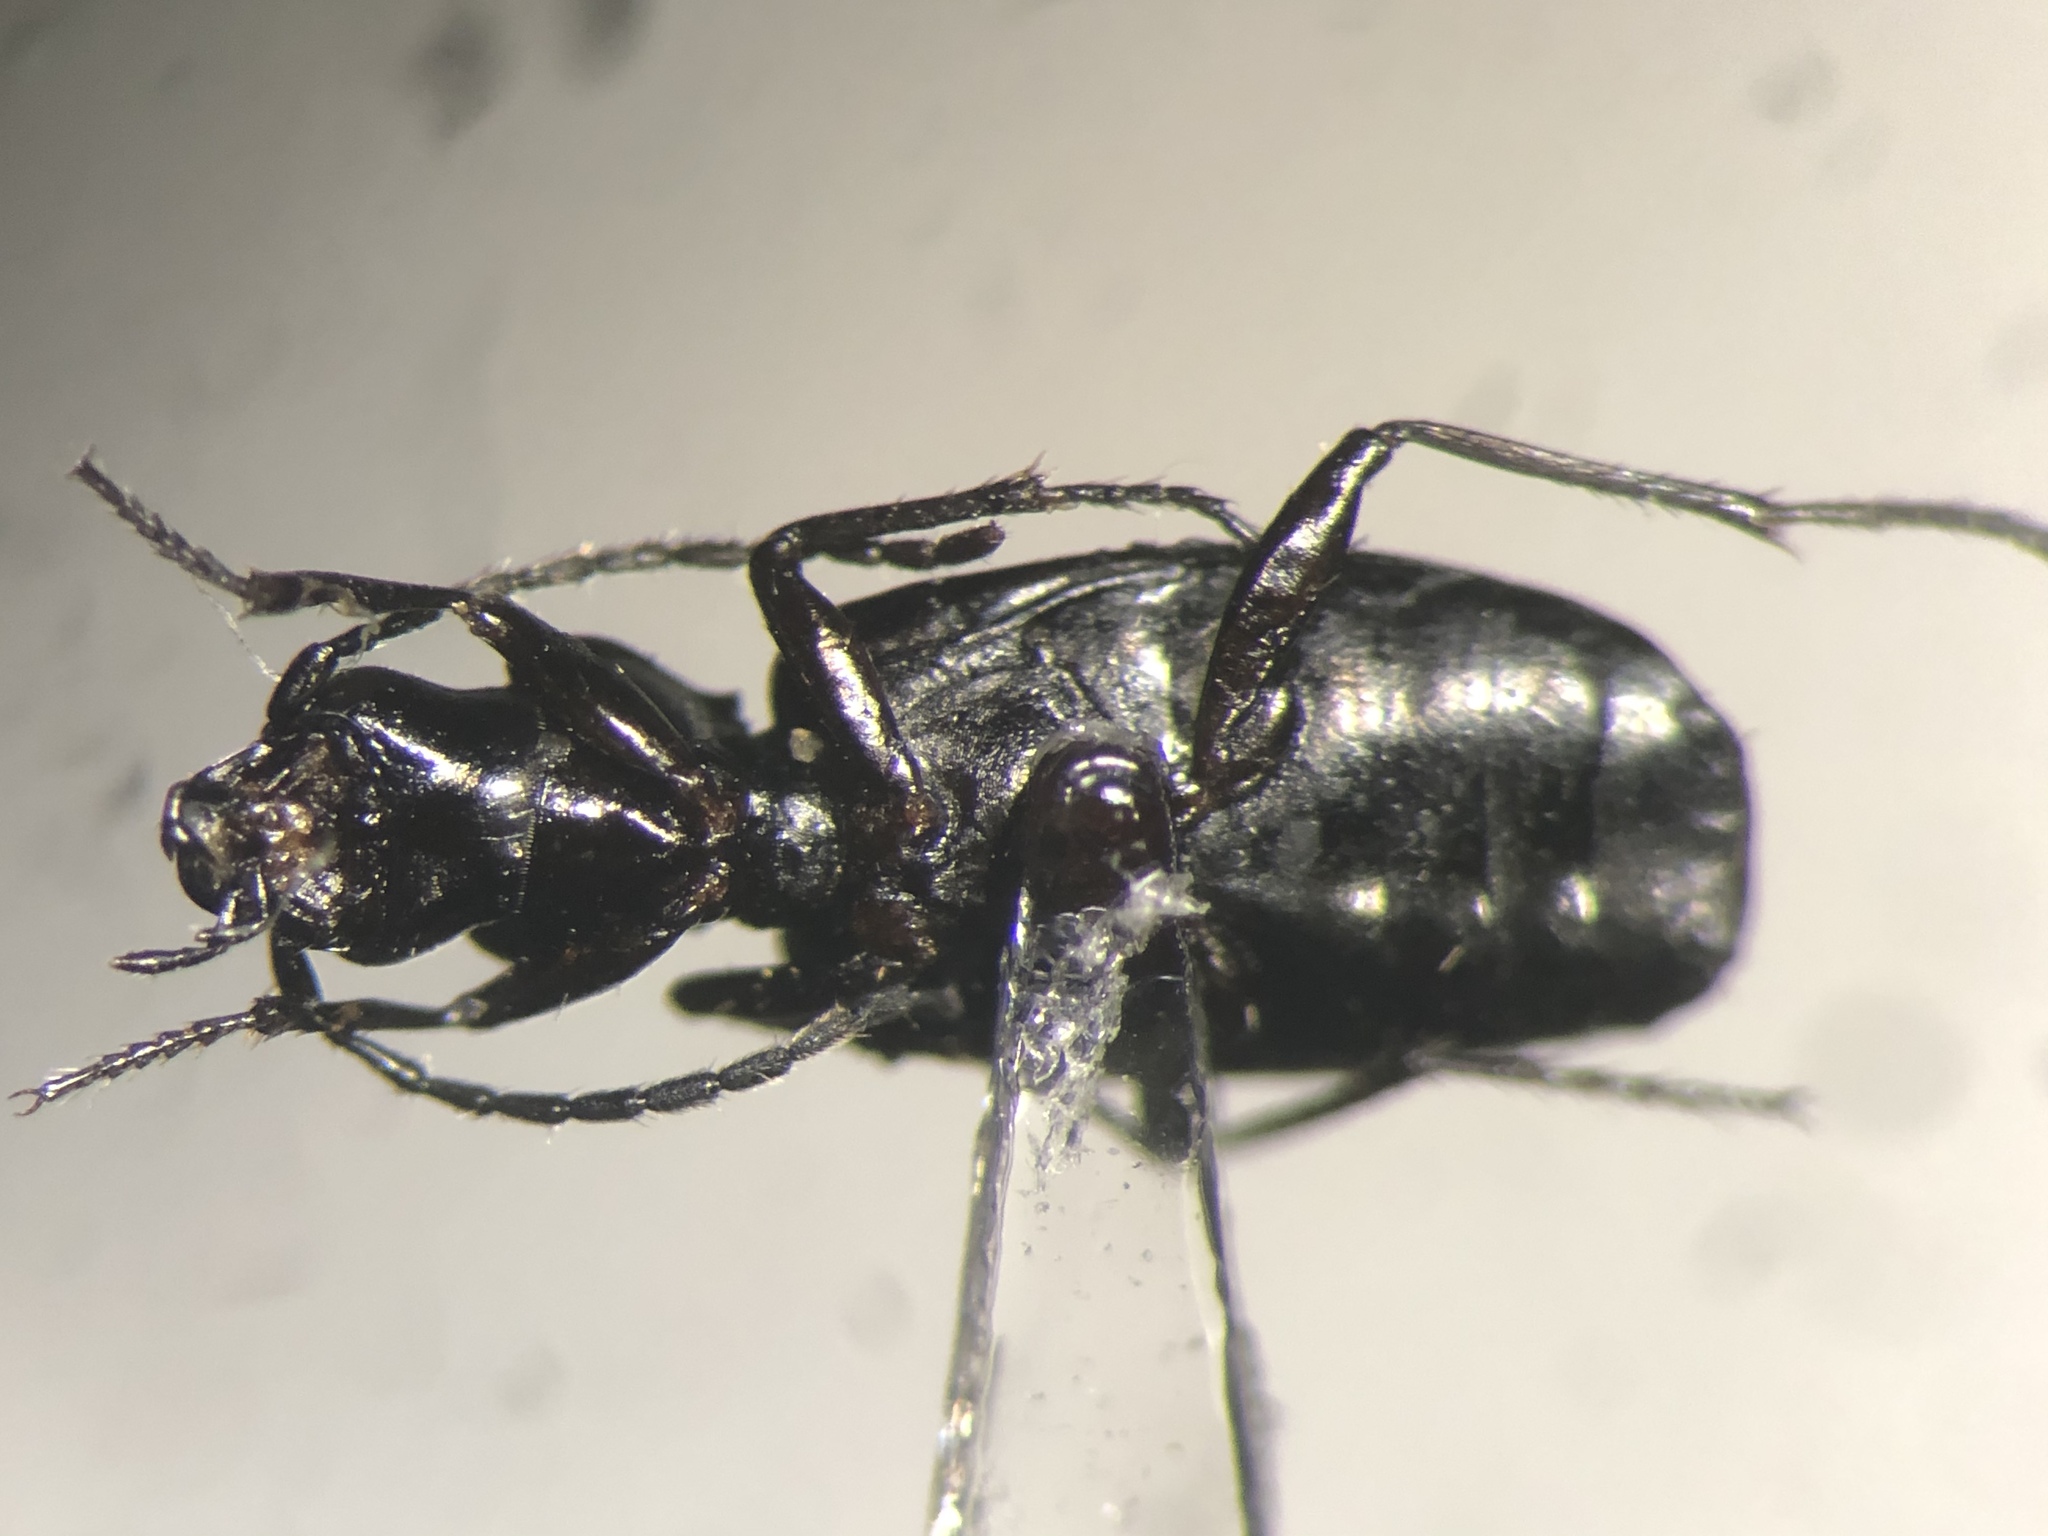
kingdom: Animalia
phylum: Arthropoda
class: Insecta
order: Coleoptera
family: Carabidae
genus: Apristus
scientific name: Apristus subsulcatus
